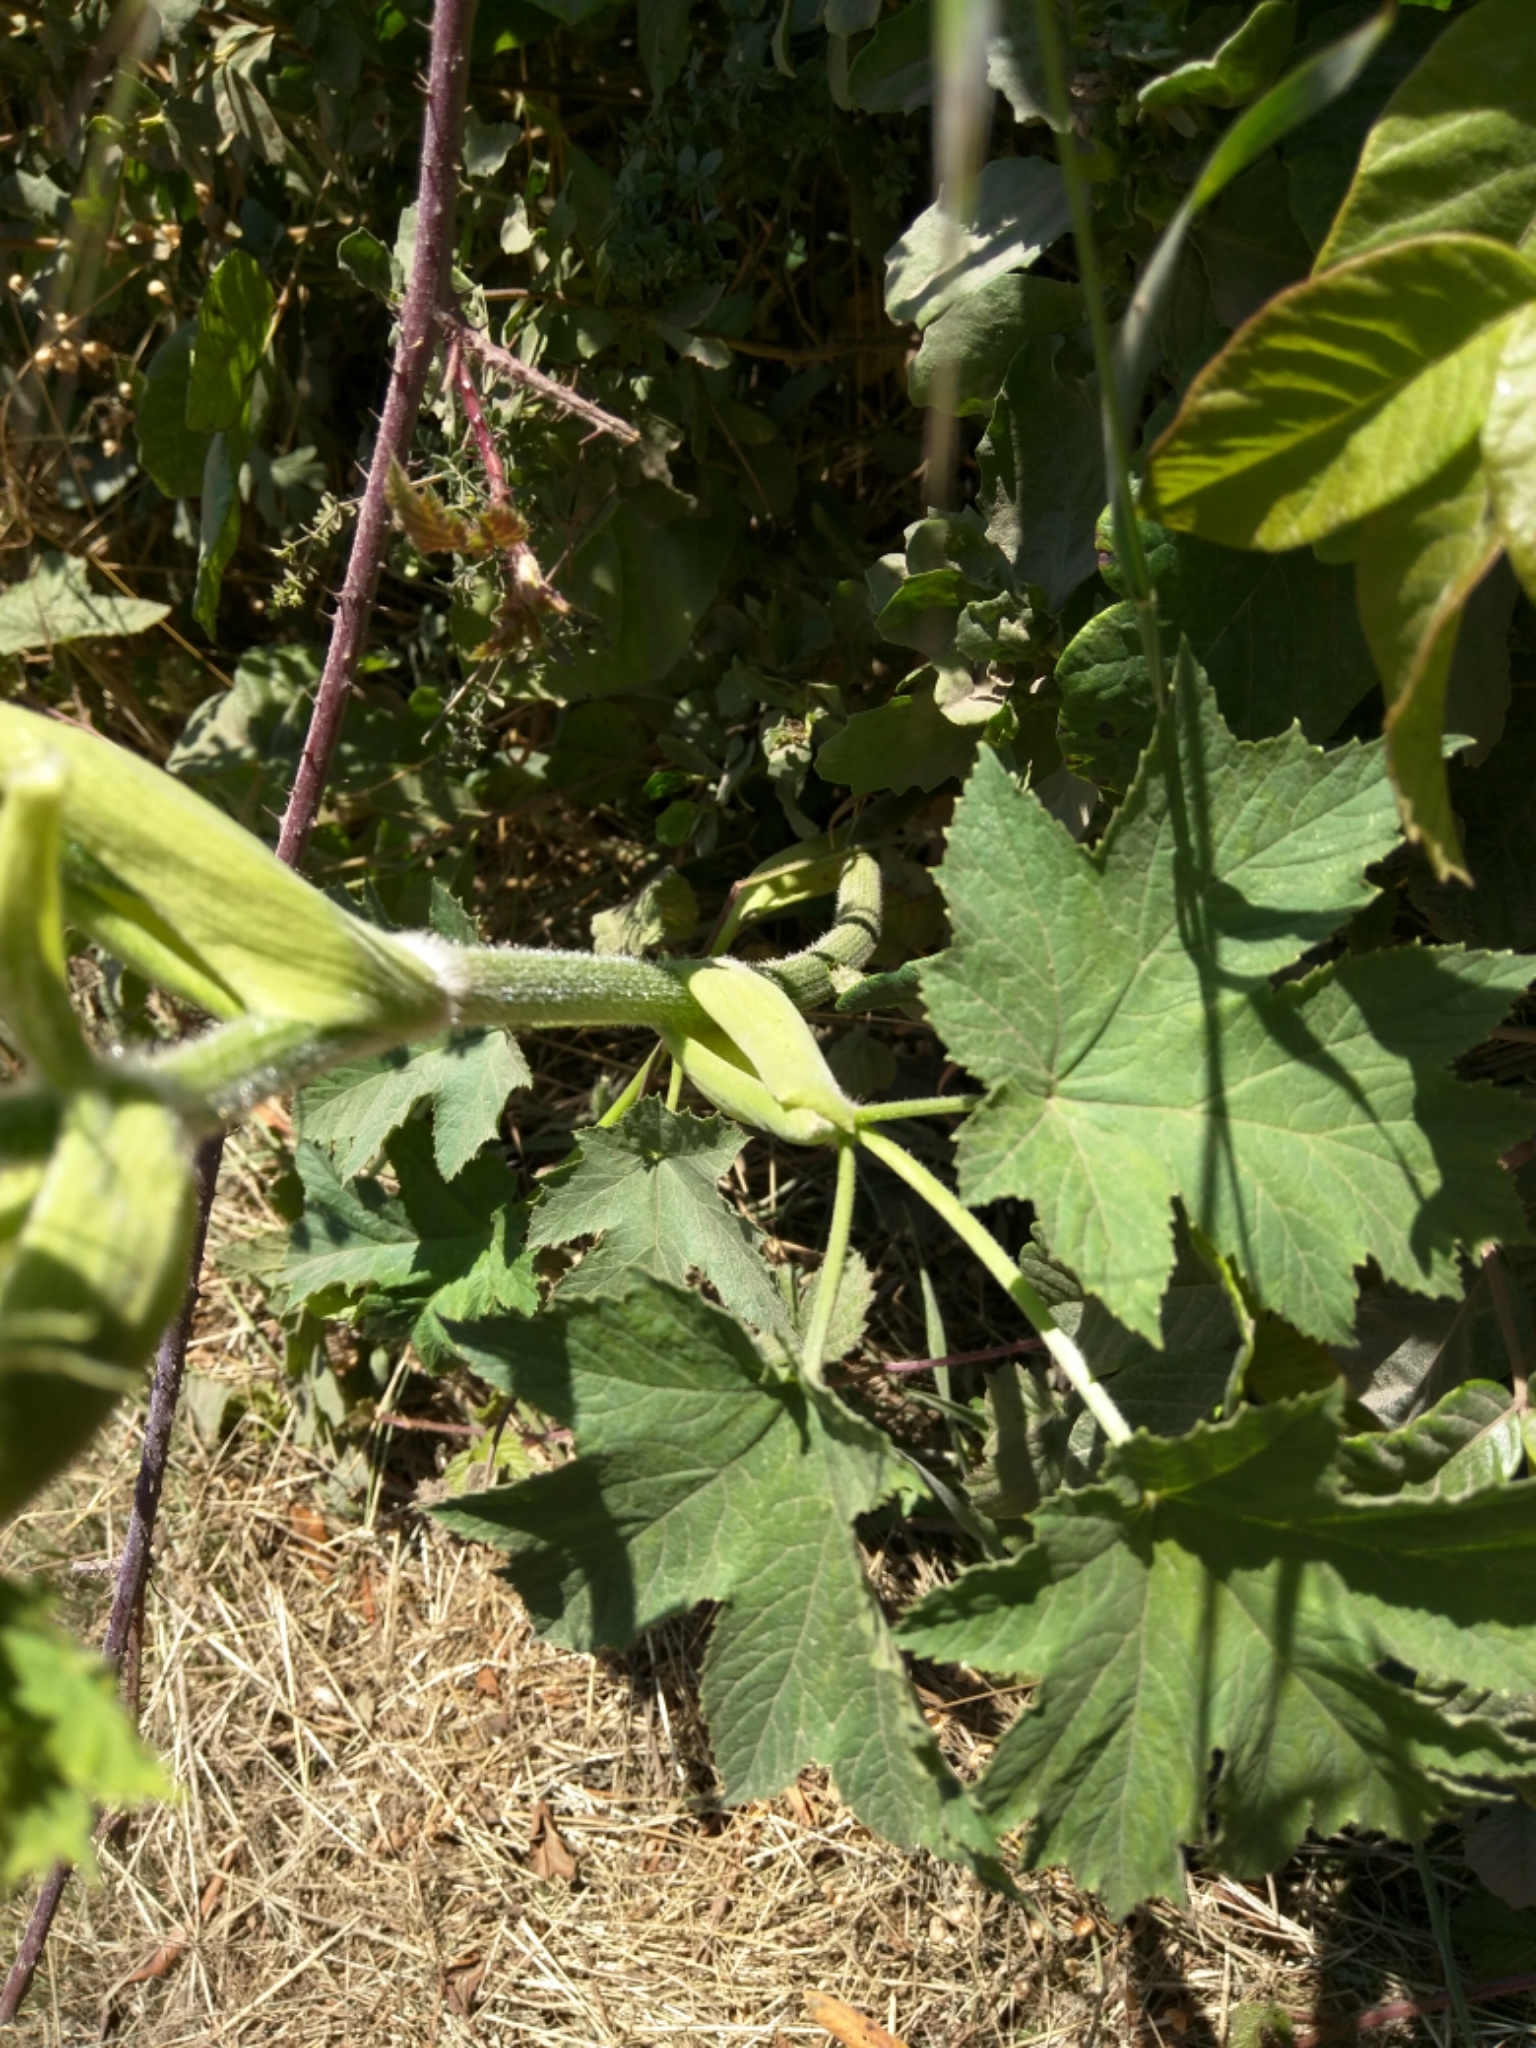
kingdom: Plantae
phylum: Tracheophyta
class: Magnoliopsida
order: Apiales
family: Apiaceae
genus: Heracleum
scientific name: Heracleum maximum
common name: American cow parsnip
